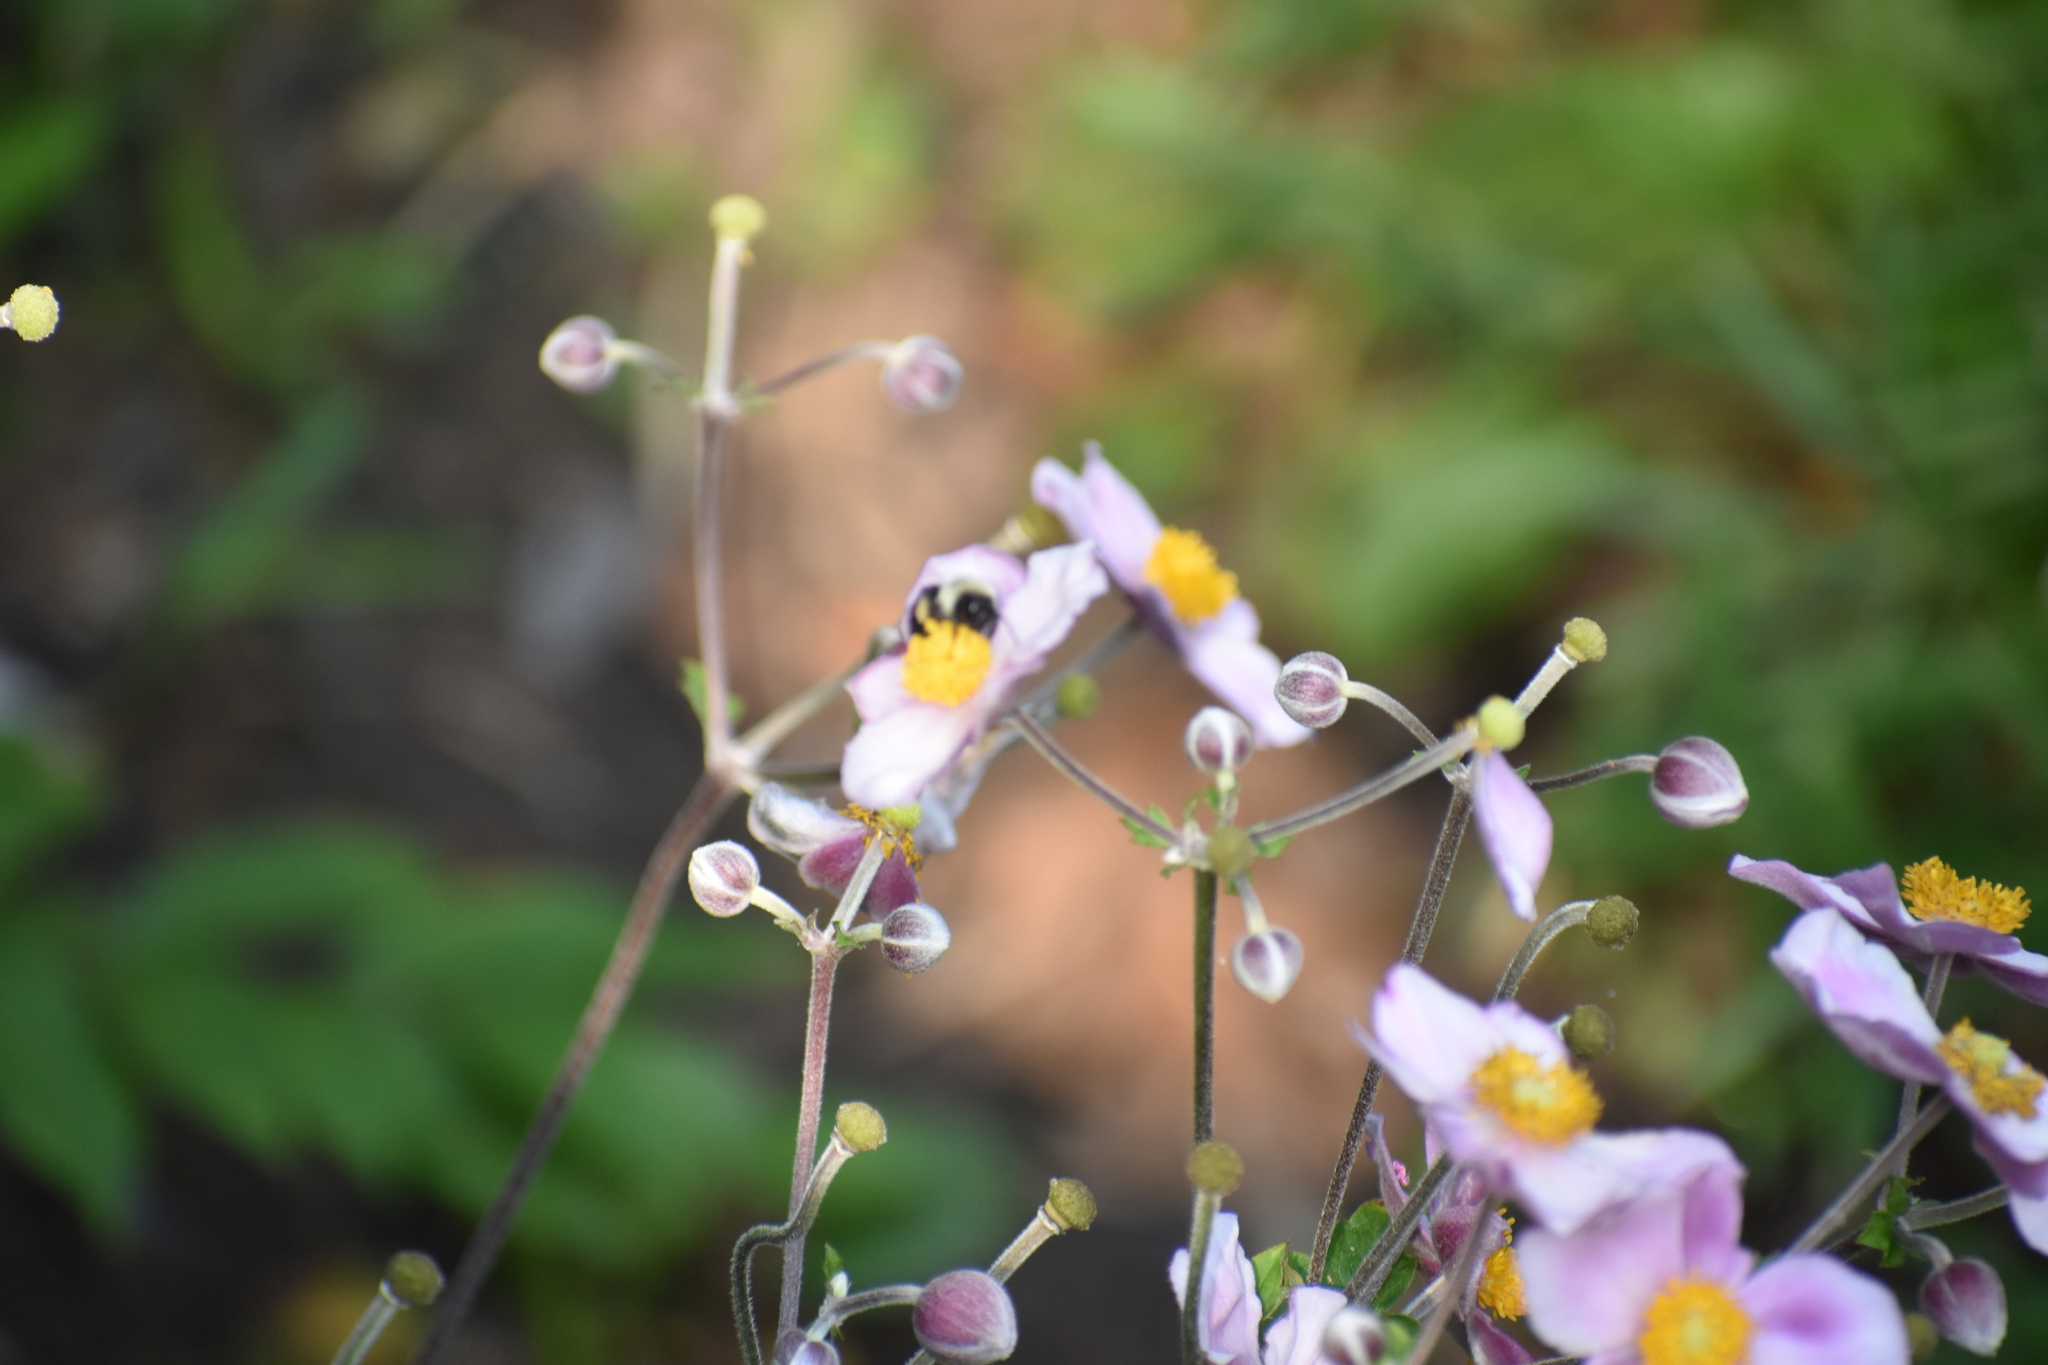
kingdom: Animalia
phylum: Arthropoda
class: Insecta
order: Hymenoptera
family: Apidae
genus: Bombus
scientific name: Bombus impatiens
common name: Common eastern bumble bee
